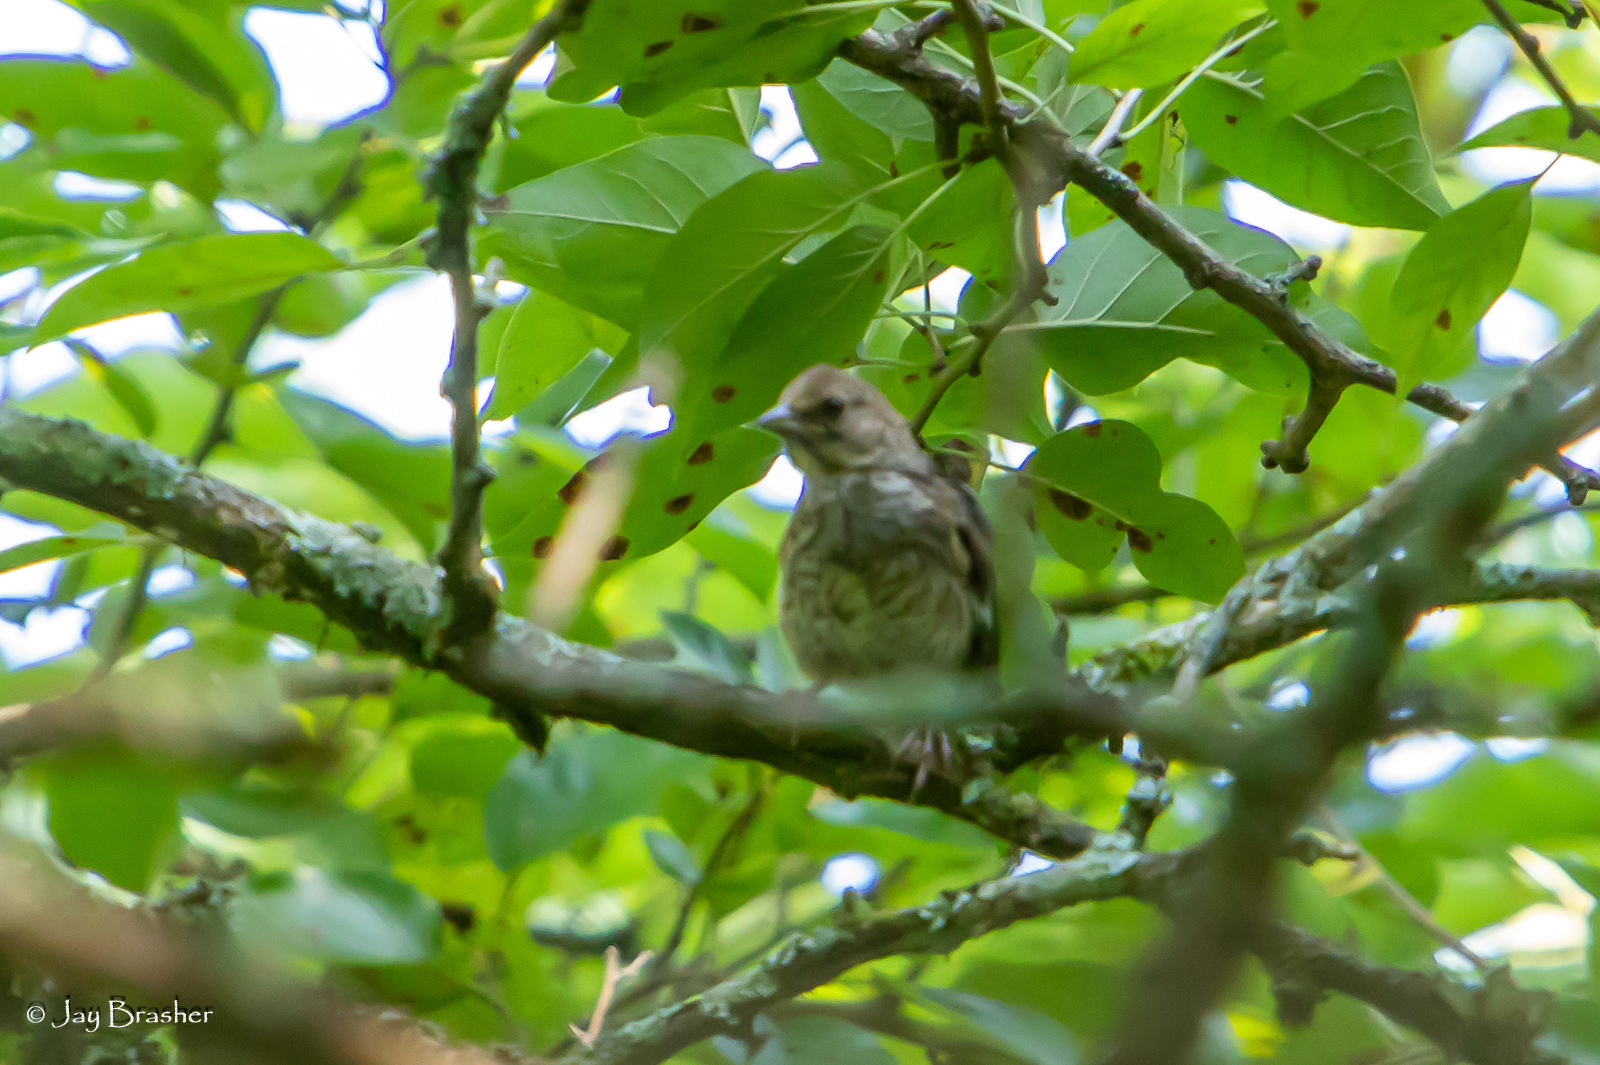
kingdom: Animalia
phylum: Chordata
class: Aves
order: Passeriformes
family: Passerellidae
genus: Pipilo
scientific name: Pipilo erythrophthalmus
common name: Eastern towhee
